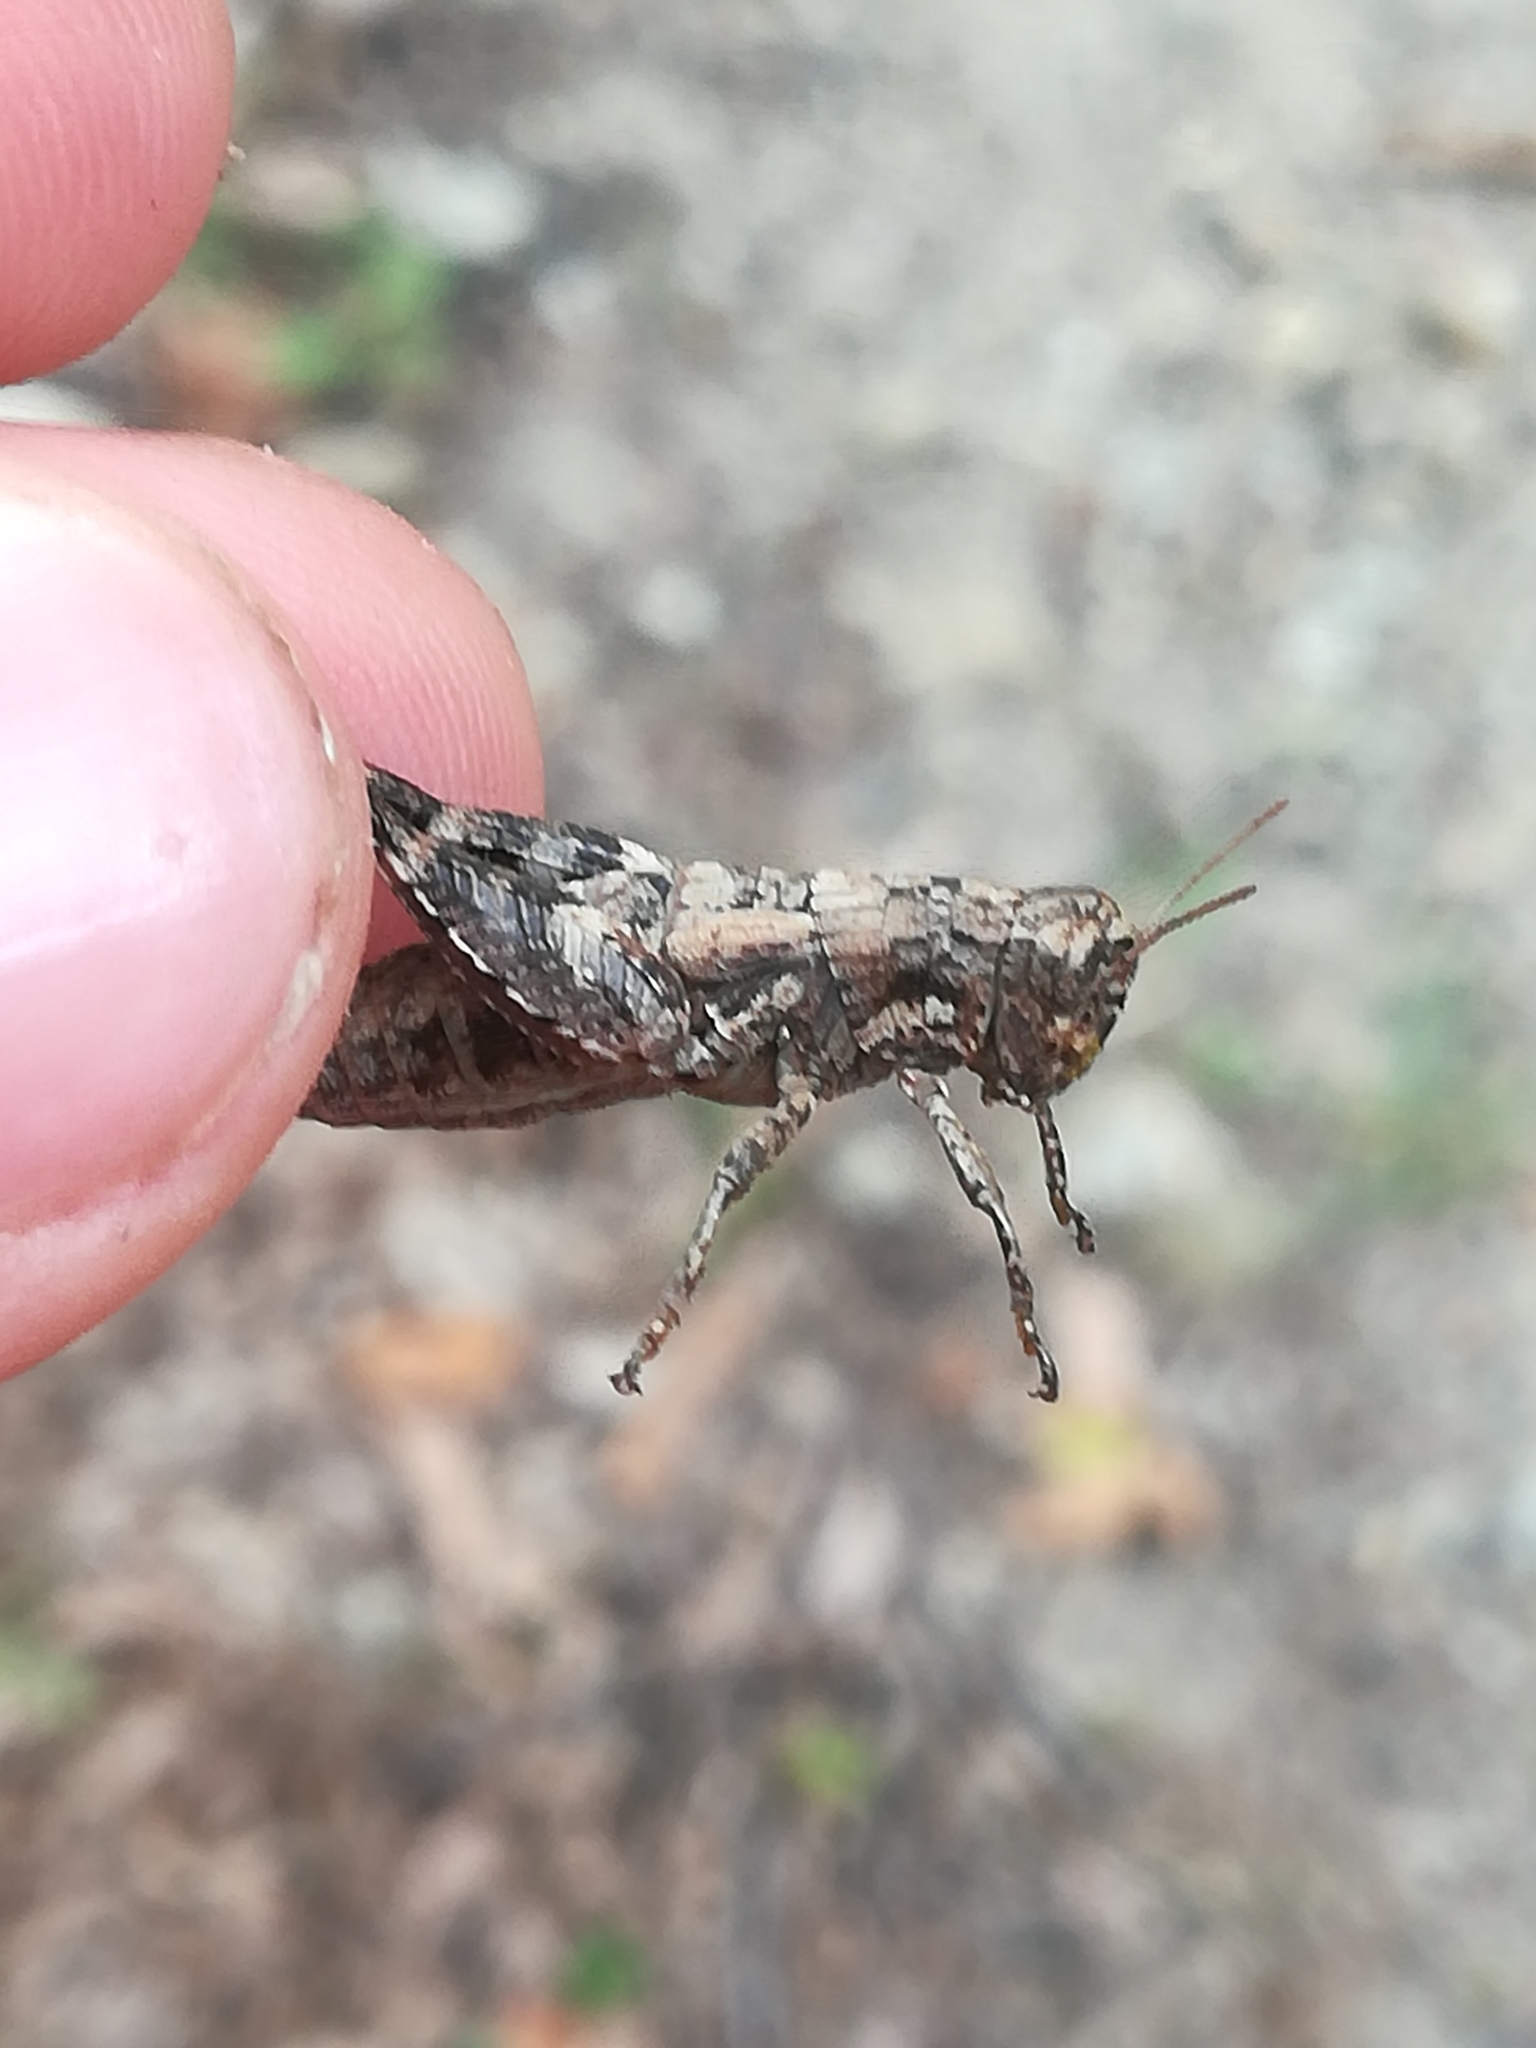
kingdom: Animalia
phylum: Arthropoda
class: Insecta
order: Orthoptera
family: Acrididae
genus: Pezotettix
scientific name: Pezotettix giornae
